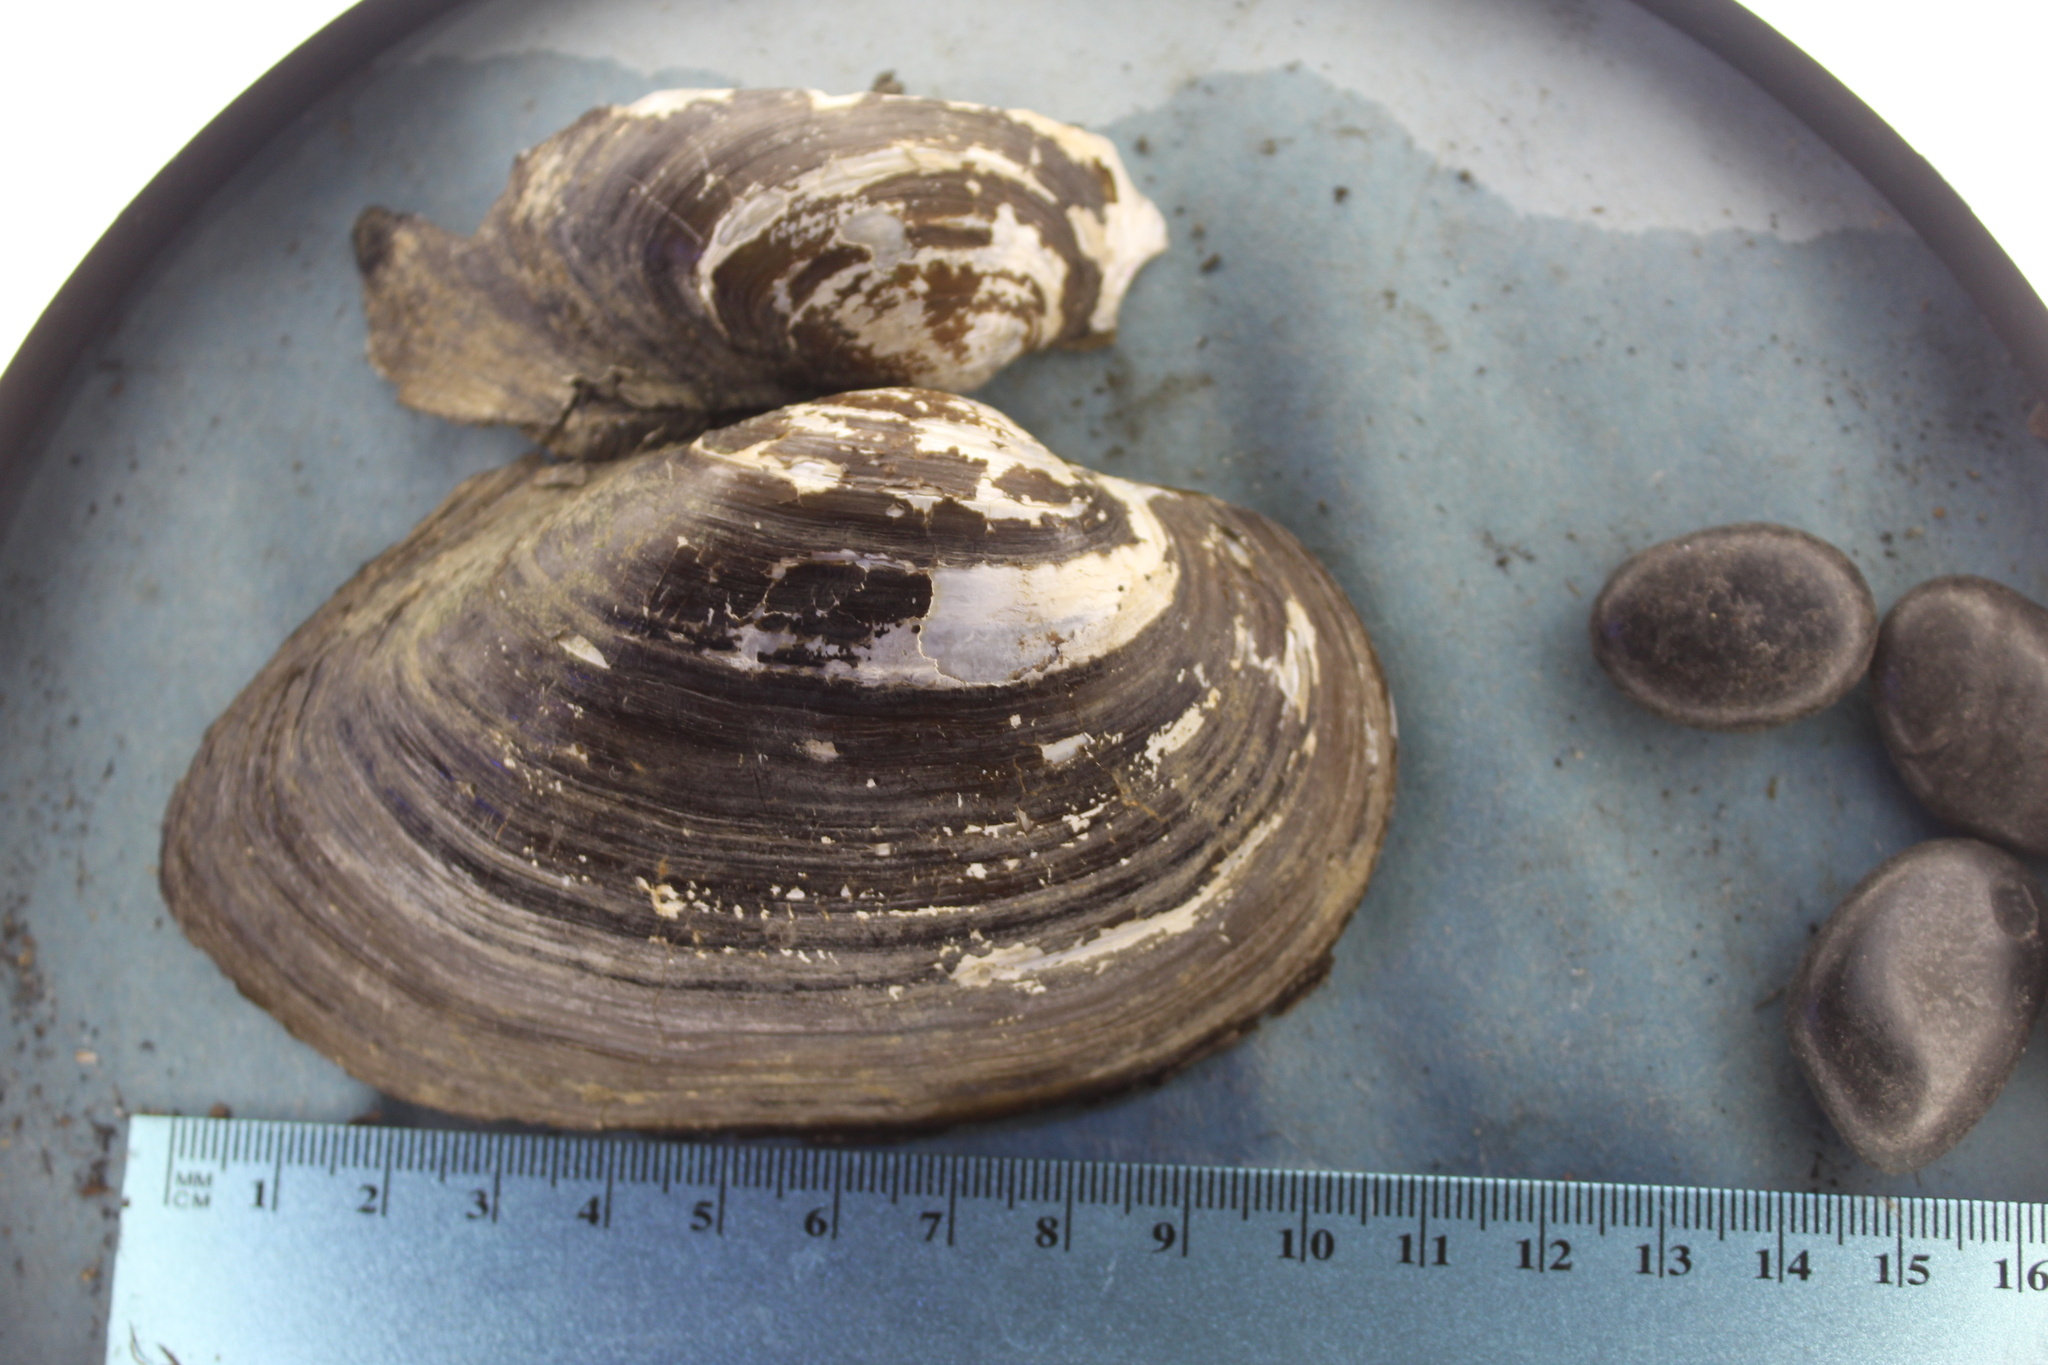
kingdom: Animalia
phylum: Mollusca
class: Bivalvia
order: Unionida
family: Unionidae
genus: Pyganodon
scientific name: Pyganodon grandis
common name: Giant floater
